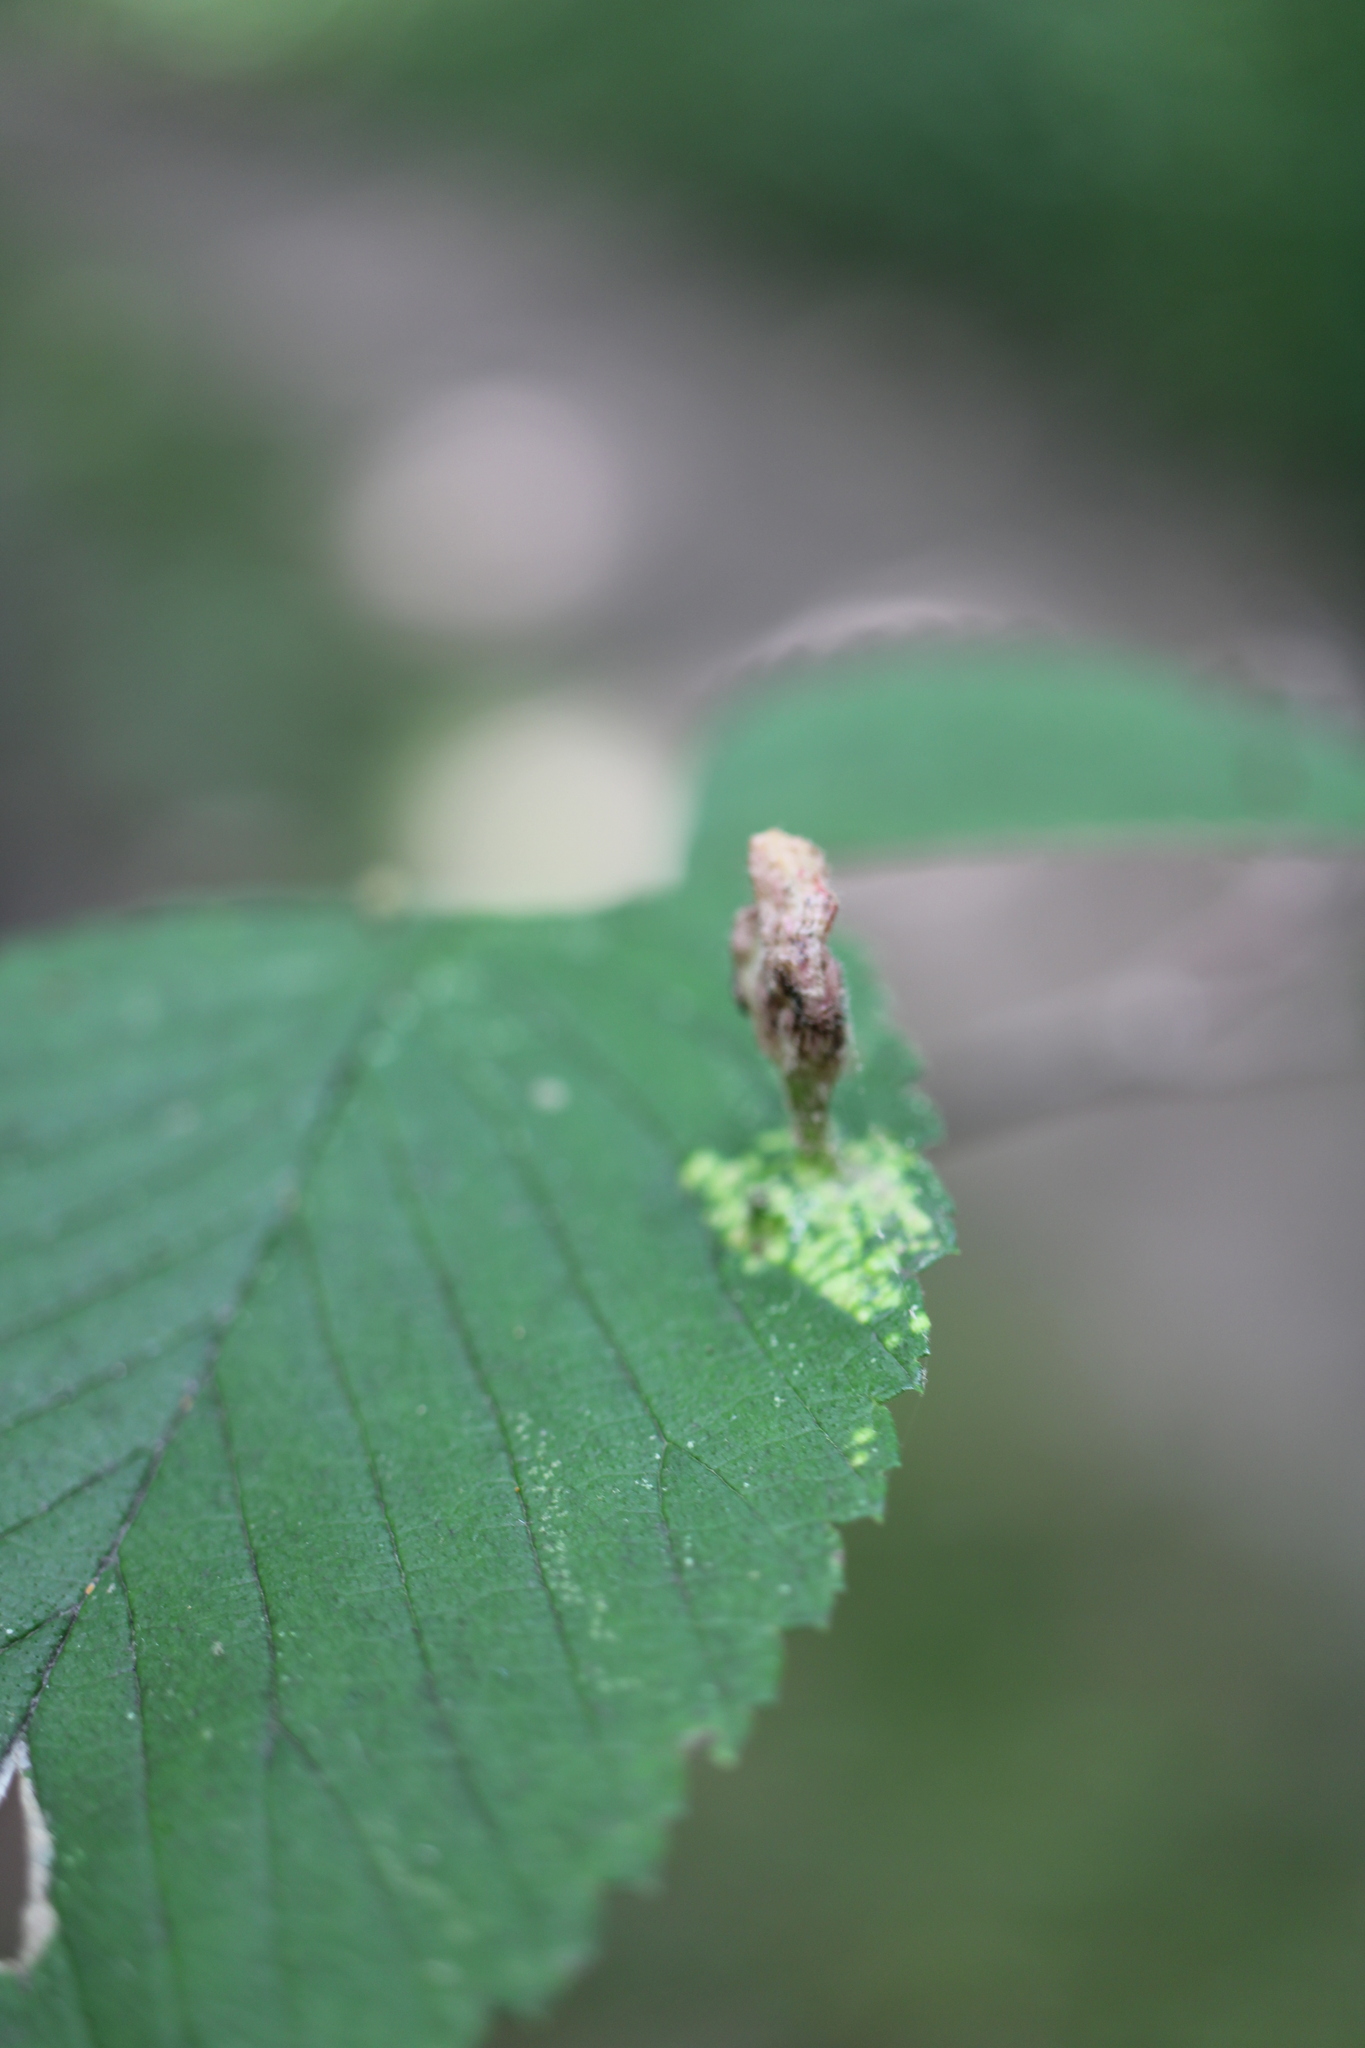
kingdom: Animalia
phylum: Arthropoda
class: Insecta
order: Hemiptera
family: Aphididae
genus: Tetraneura
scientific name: Tetraneura nigriabdominalis
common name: Aphid
